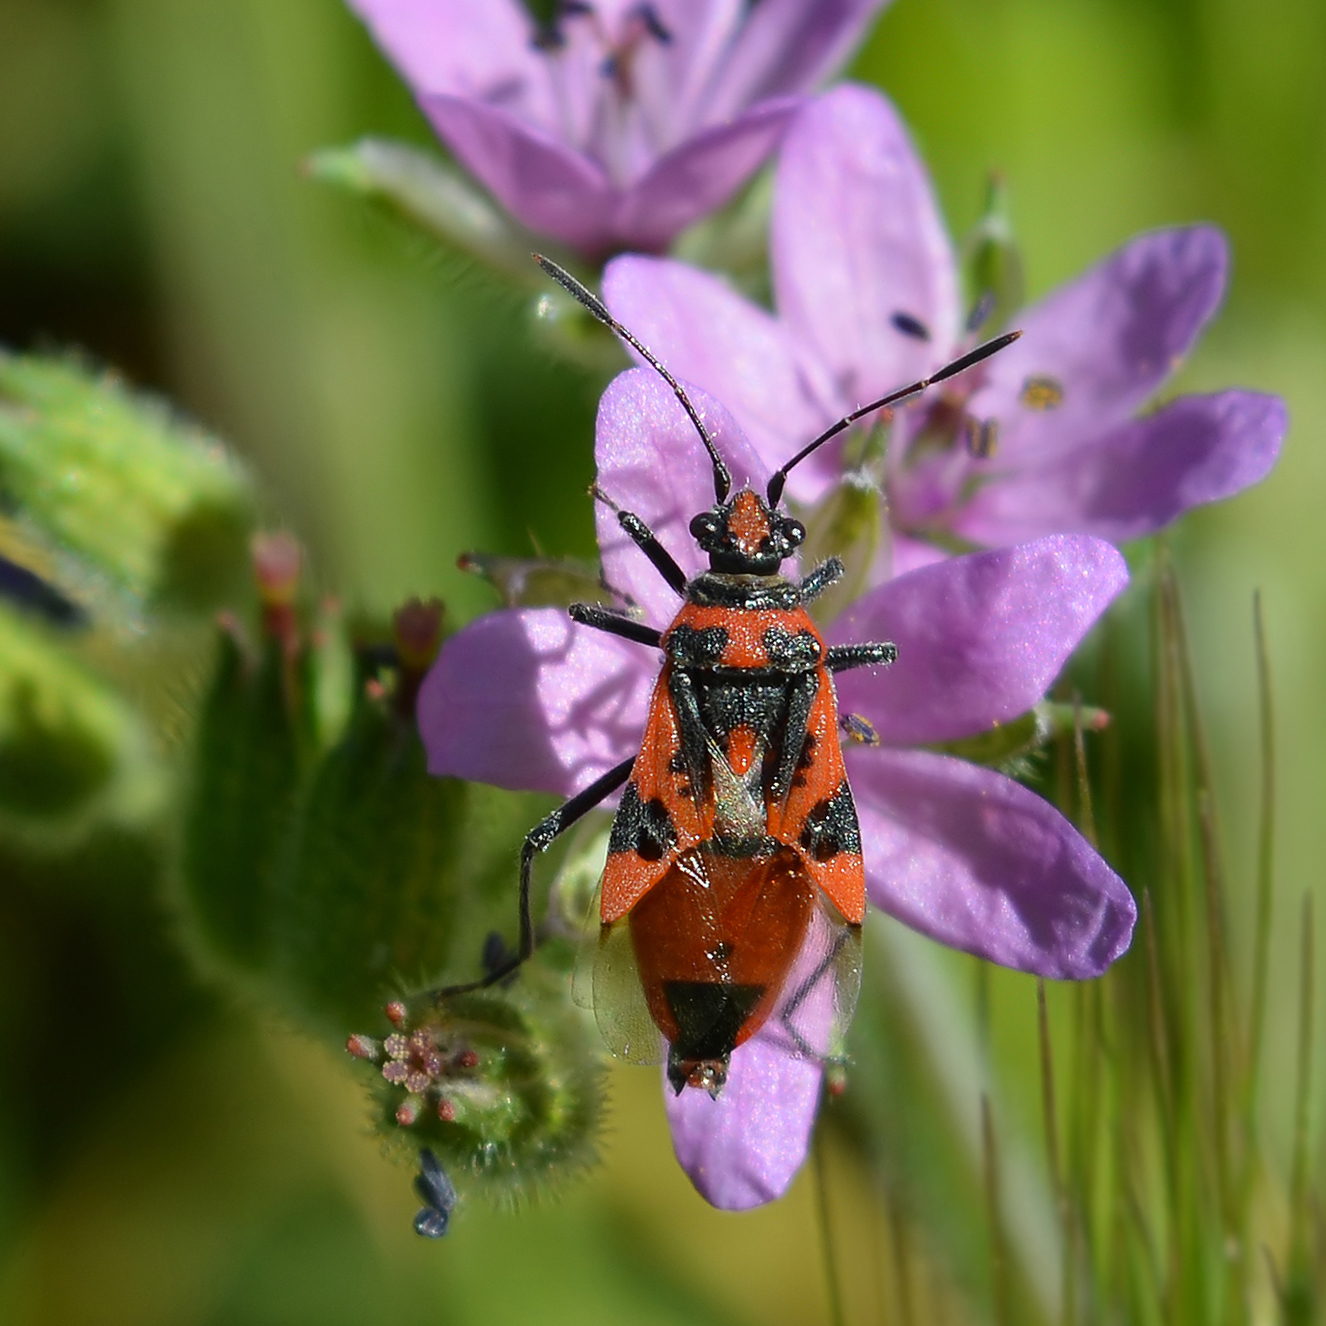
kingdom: Animalia
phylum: Arthropoda
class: Insecta
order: Hemiptera
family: Rhopalidae
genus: Corizus
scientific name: Corizus hyoscyami
